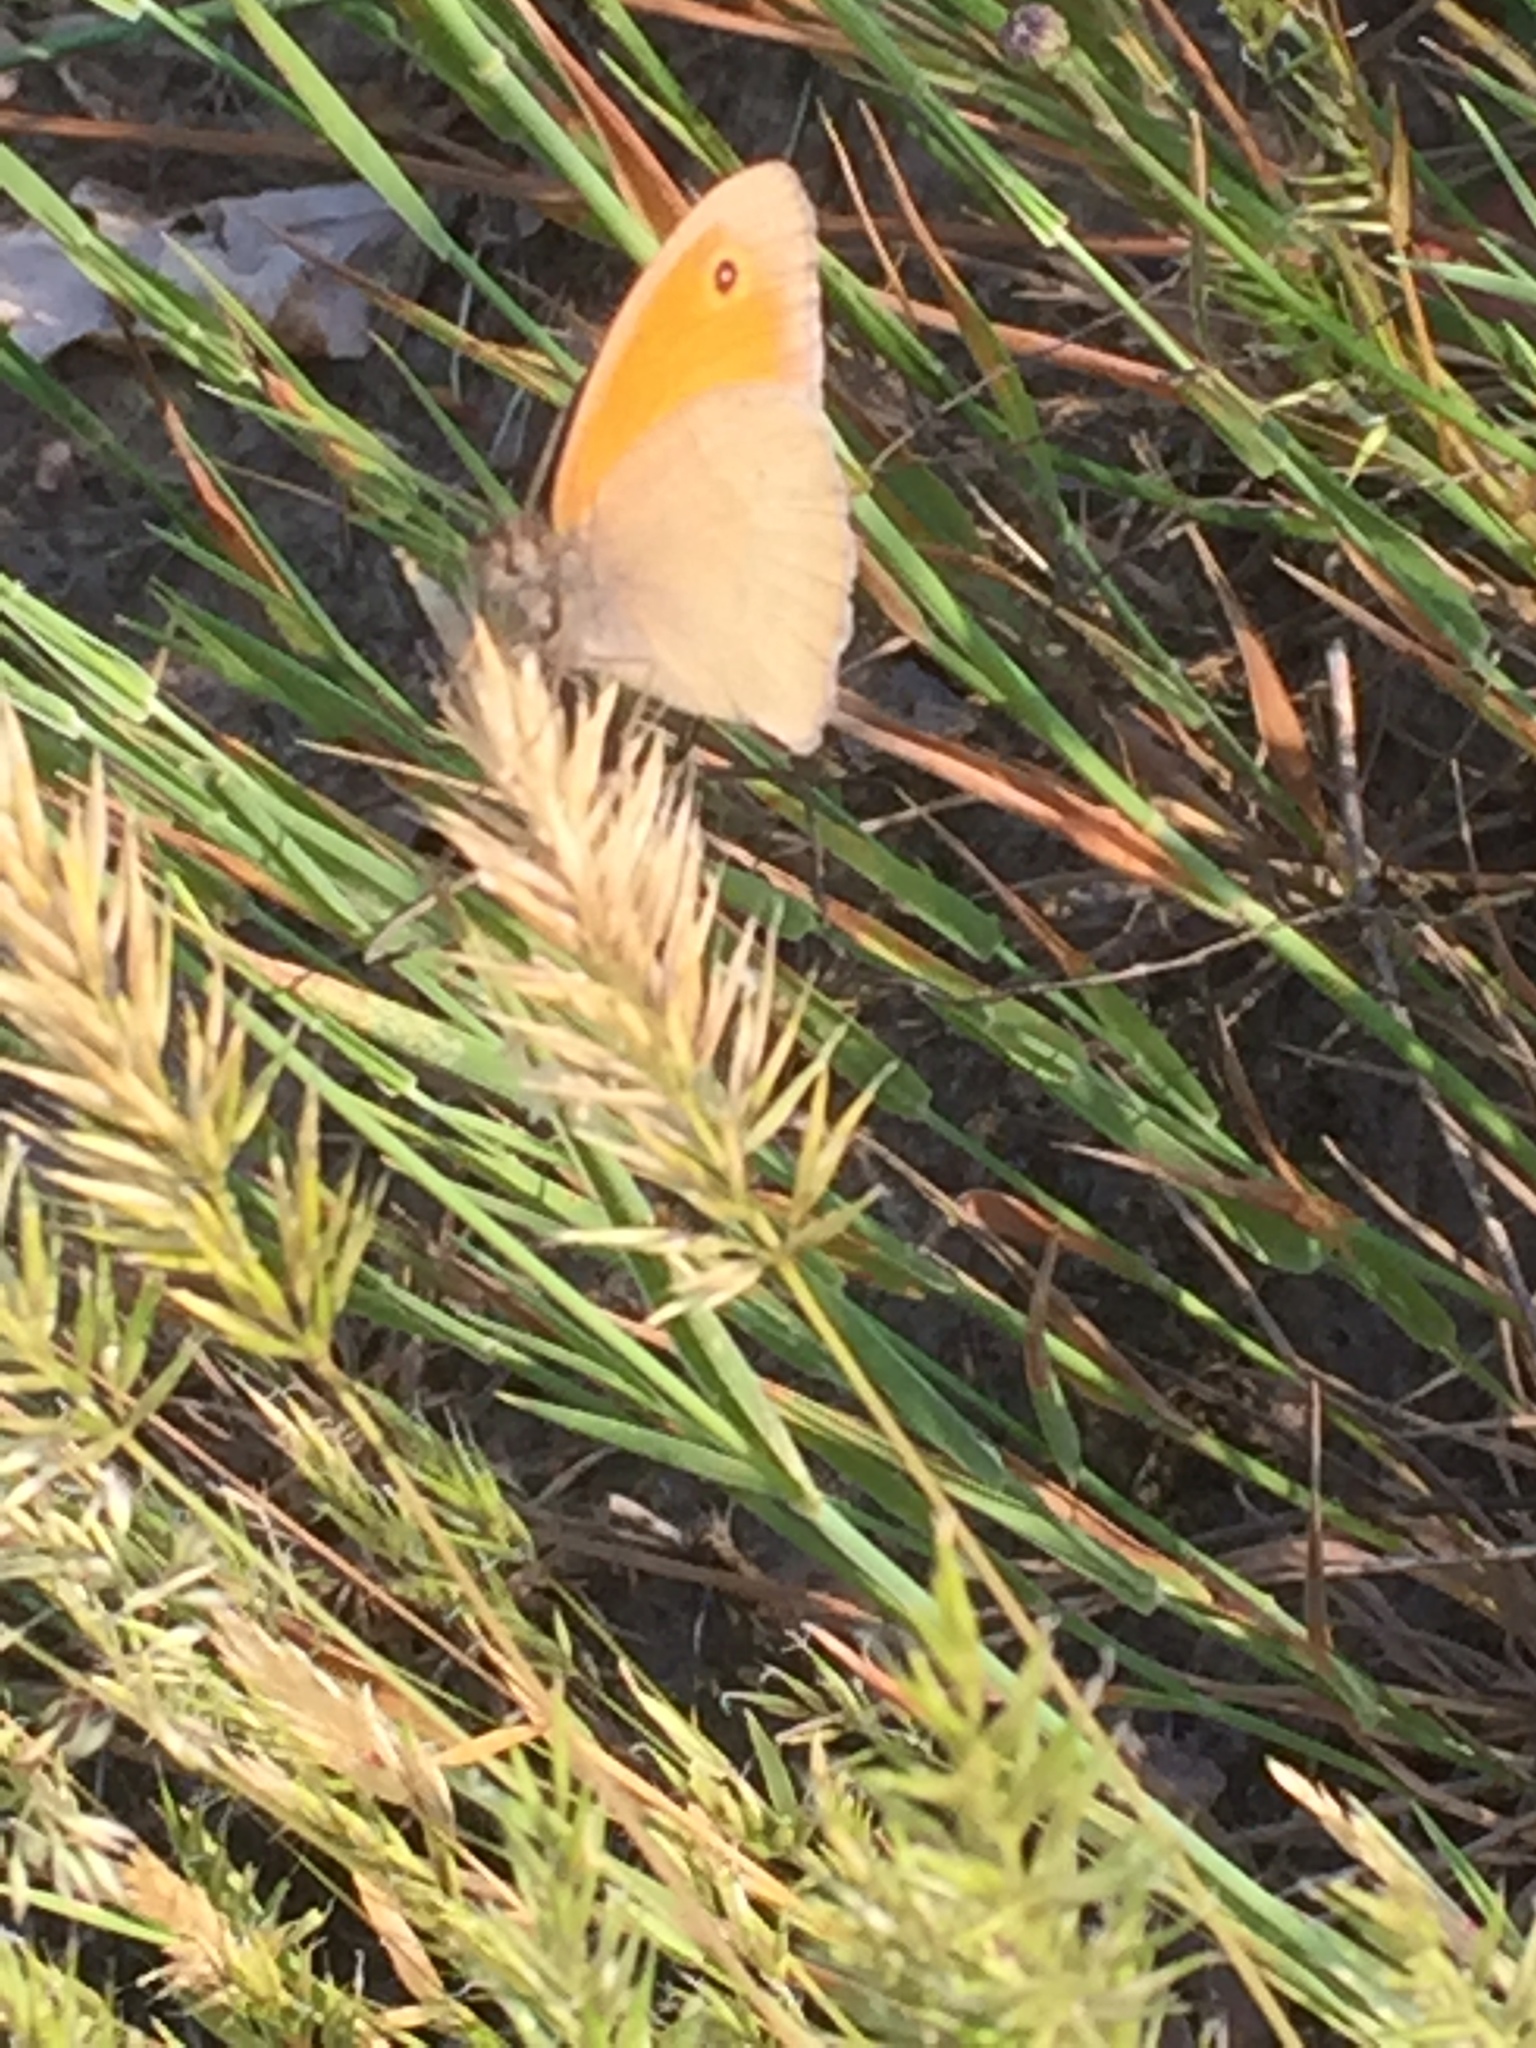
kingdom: Animalia
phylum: Arthropoda
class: Insecta
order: Lepidoptera
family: Nymphalidae
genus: Maniola
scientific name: Maniola jurtina
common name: Meadow brown
